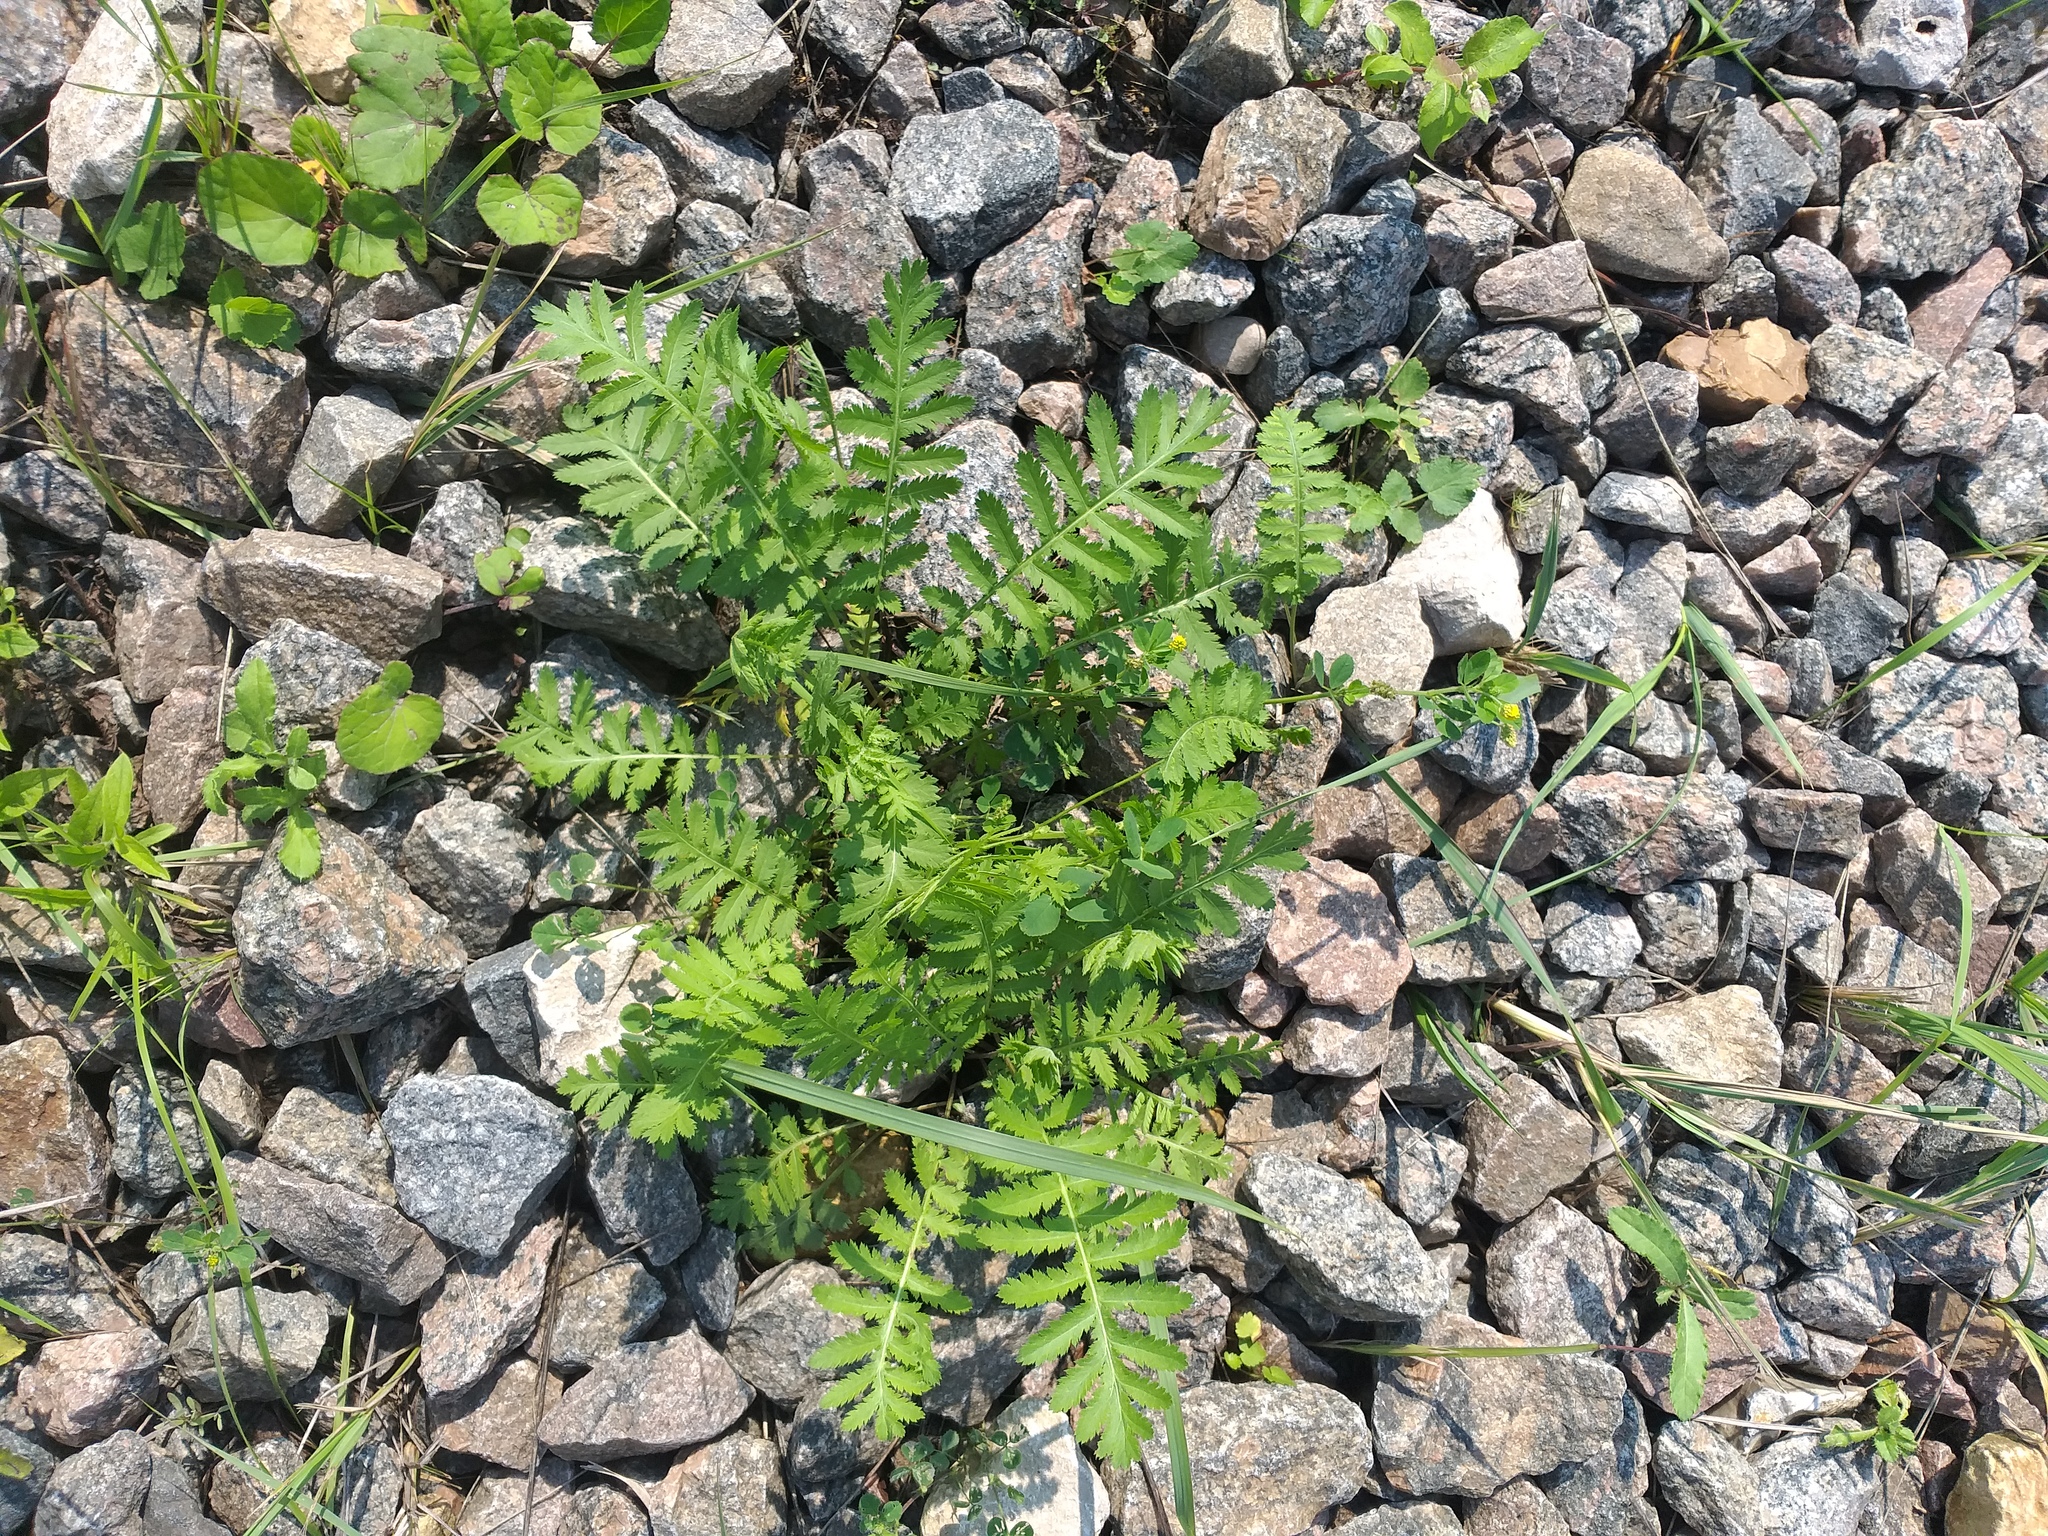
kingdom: Plantae
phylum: Tracheophyta
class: Magnoliopsida
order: Asterales
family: Asteraceae
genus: Tanacetum
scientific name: Tanacetum vulgare
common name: Common tansy
